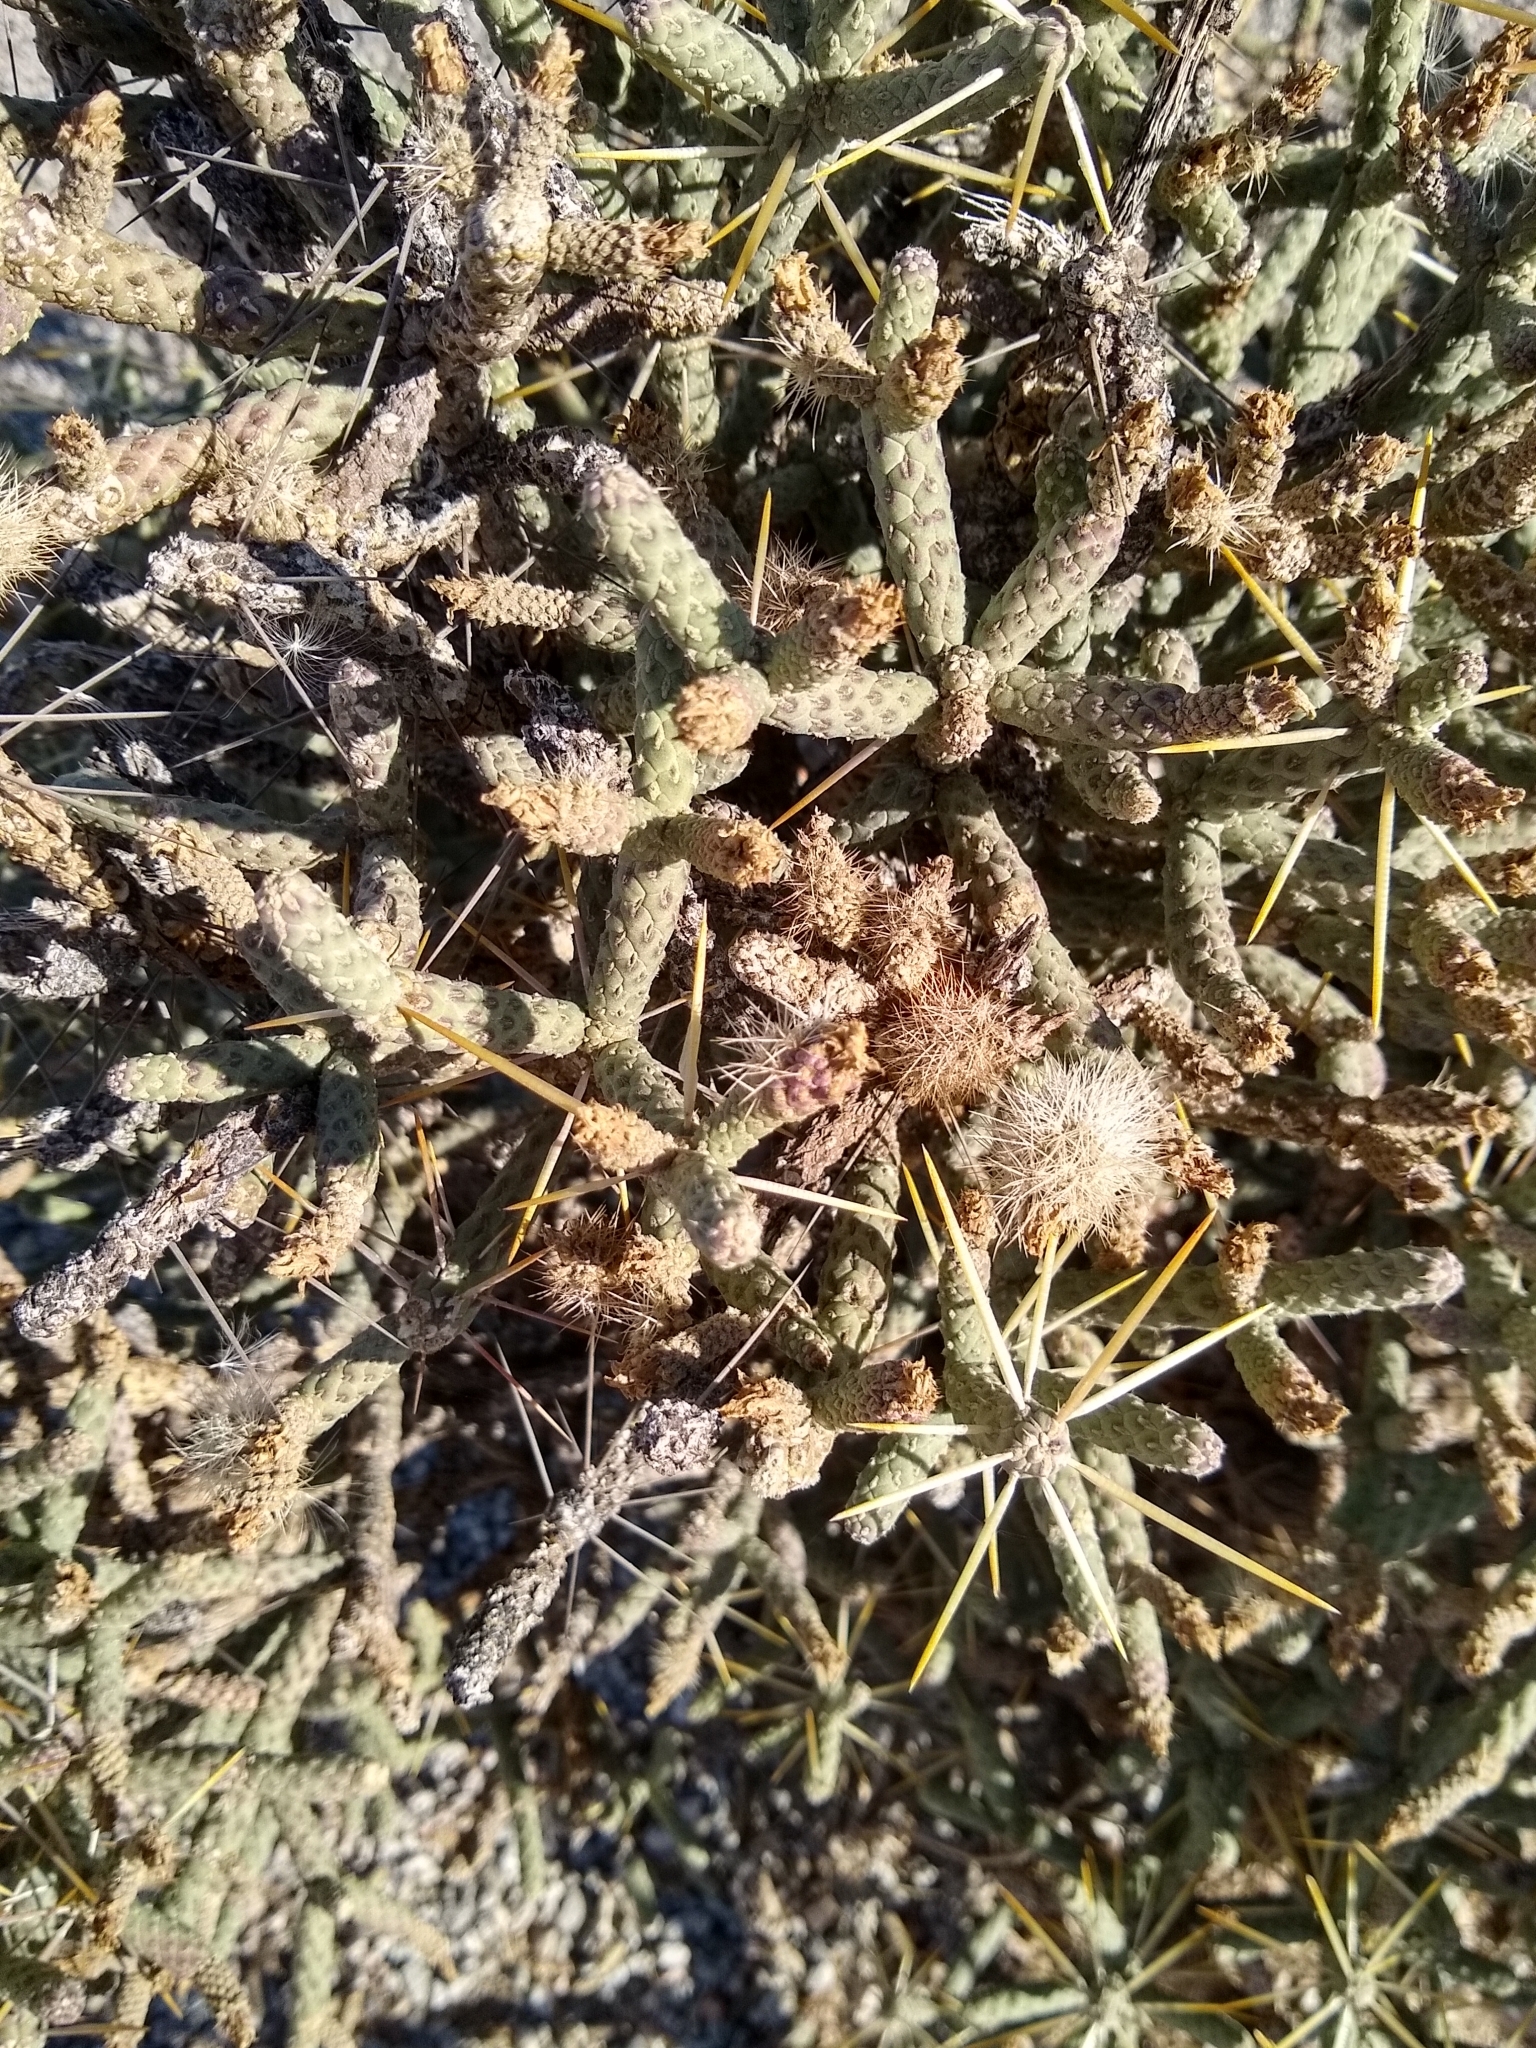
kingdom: Plantae
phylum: Tracheophyta
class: Magnoliopsida
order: Caryophyllales
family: Cactaceae
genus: Cylindropuntia
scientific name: Cylindropuntia ramosissima
